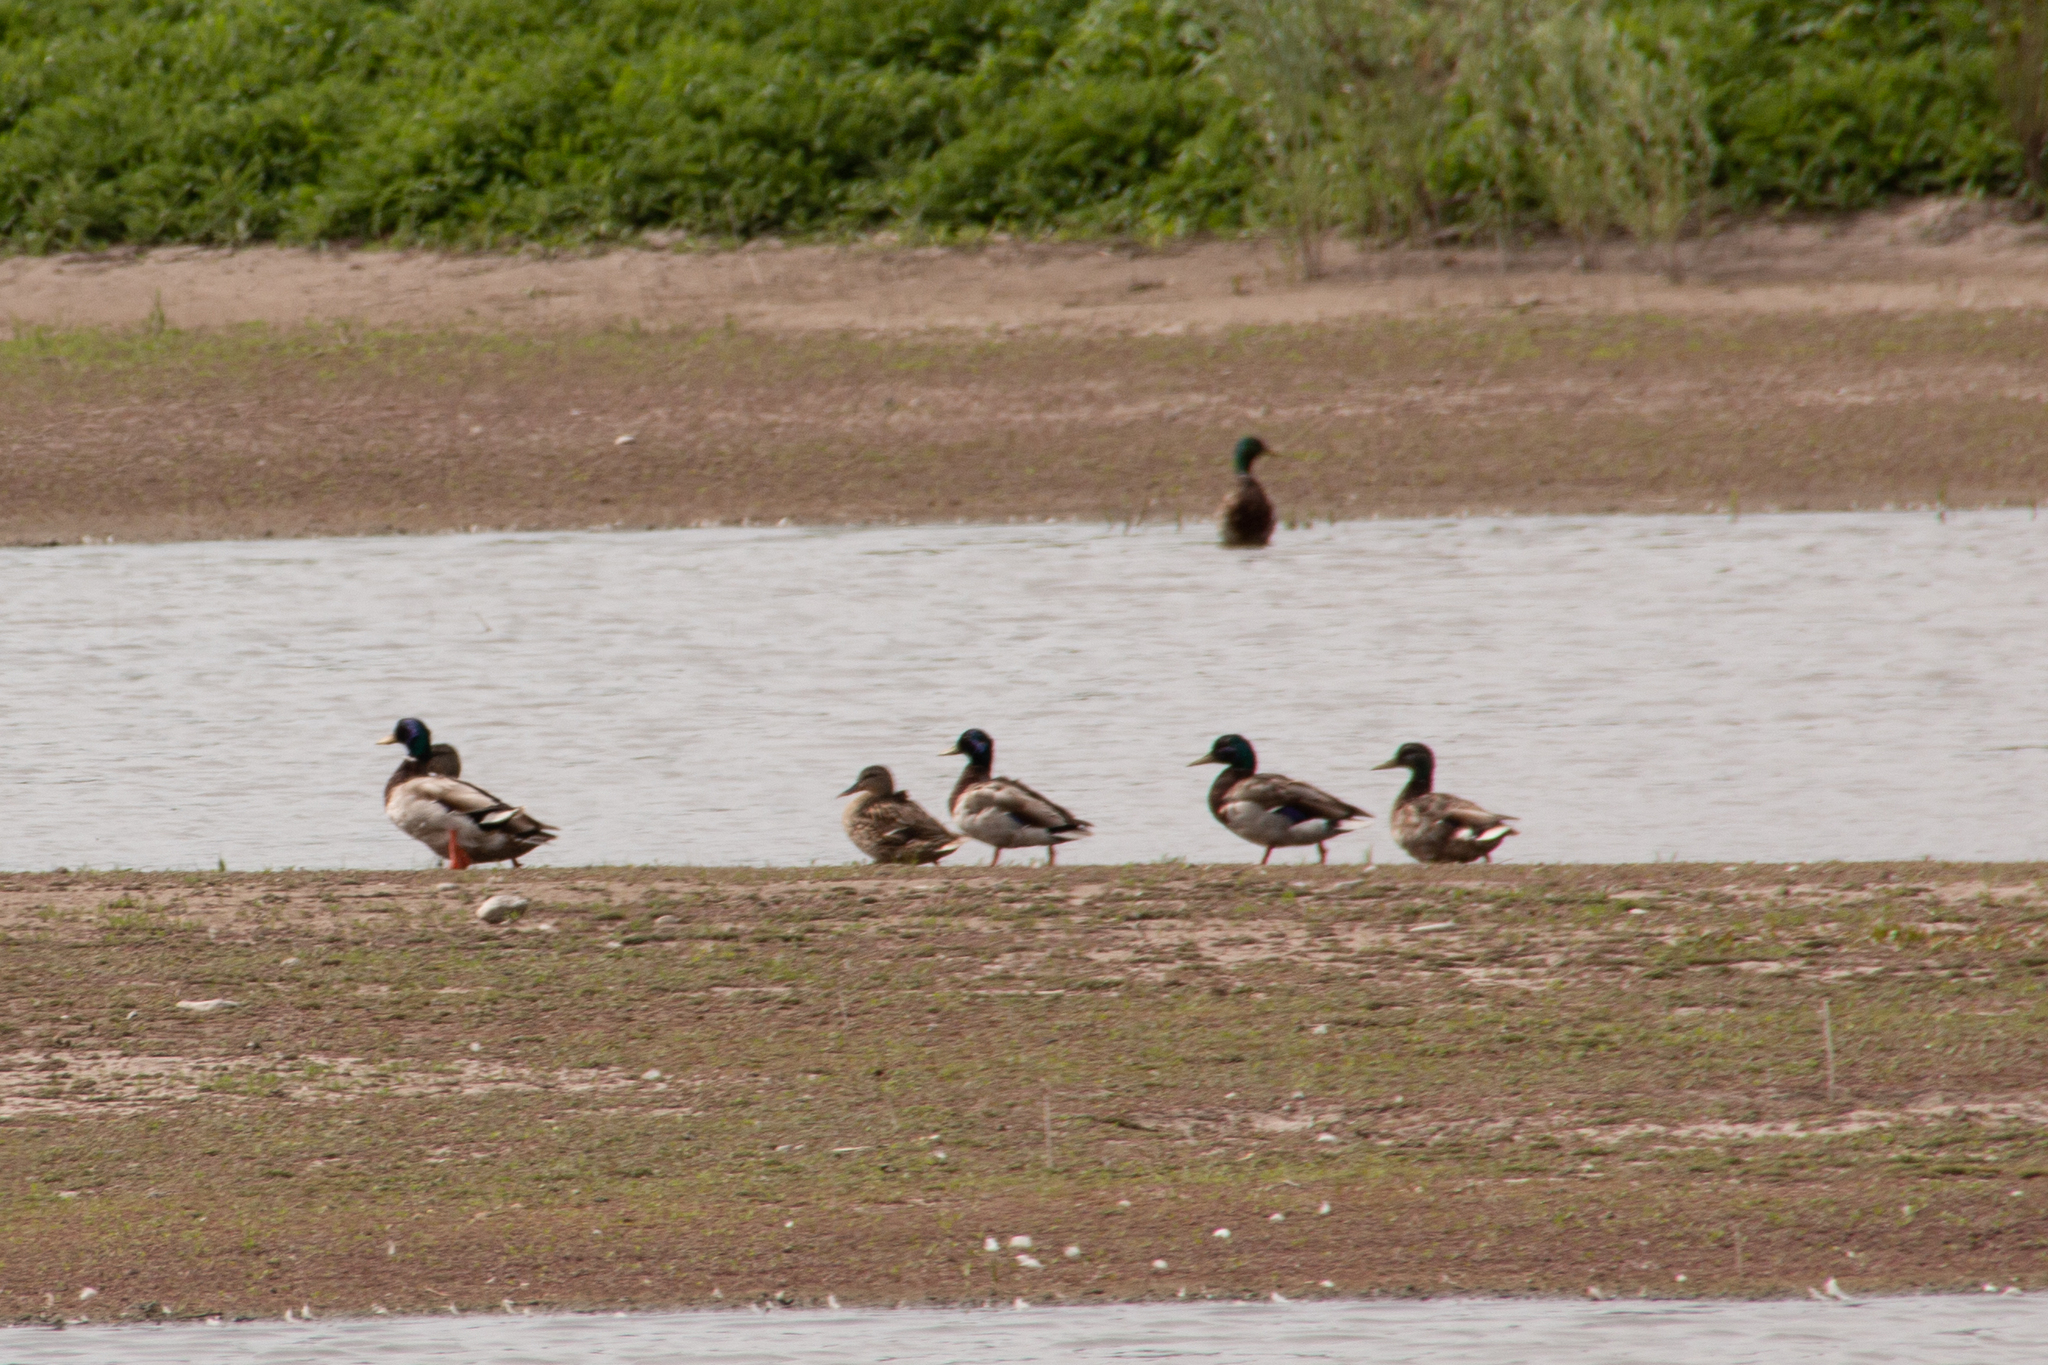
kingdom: Animalia
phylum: Chordata
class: Aves
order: Anseriformes
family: Anatidae
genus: Anas
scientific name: Anas platyrhynchos
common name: Mallard
